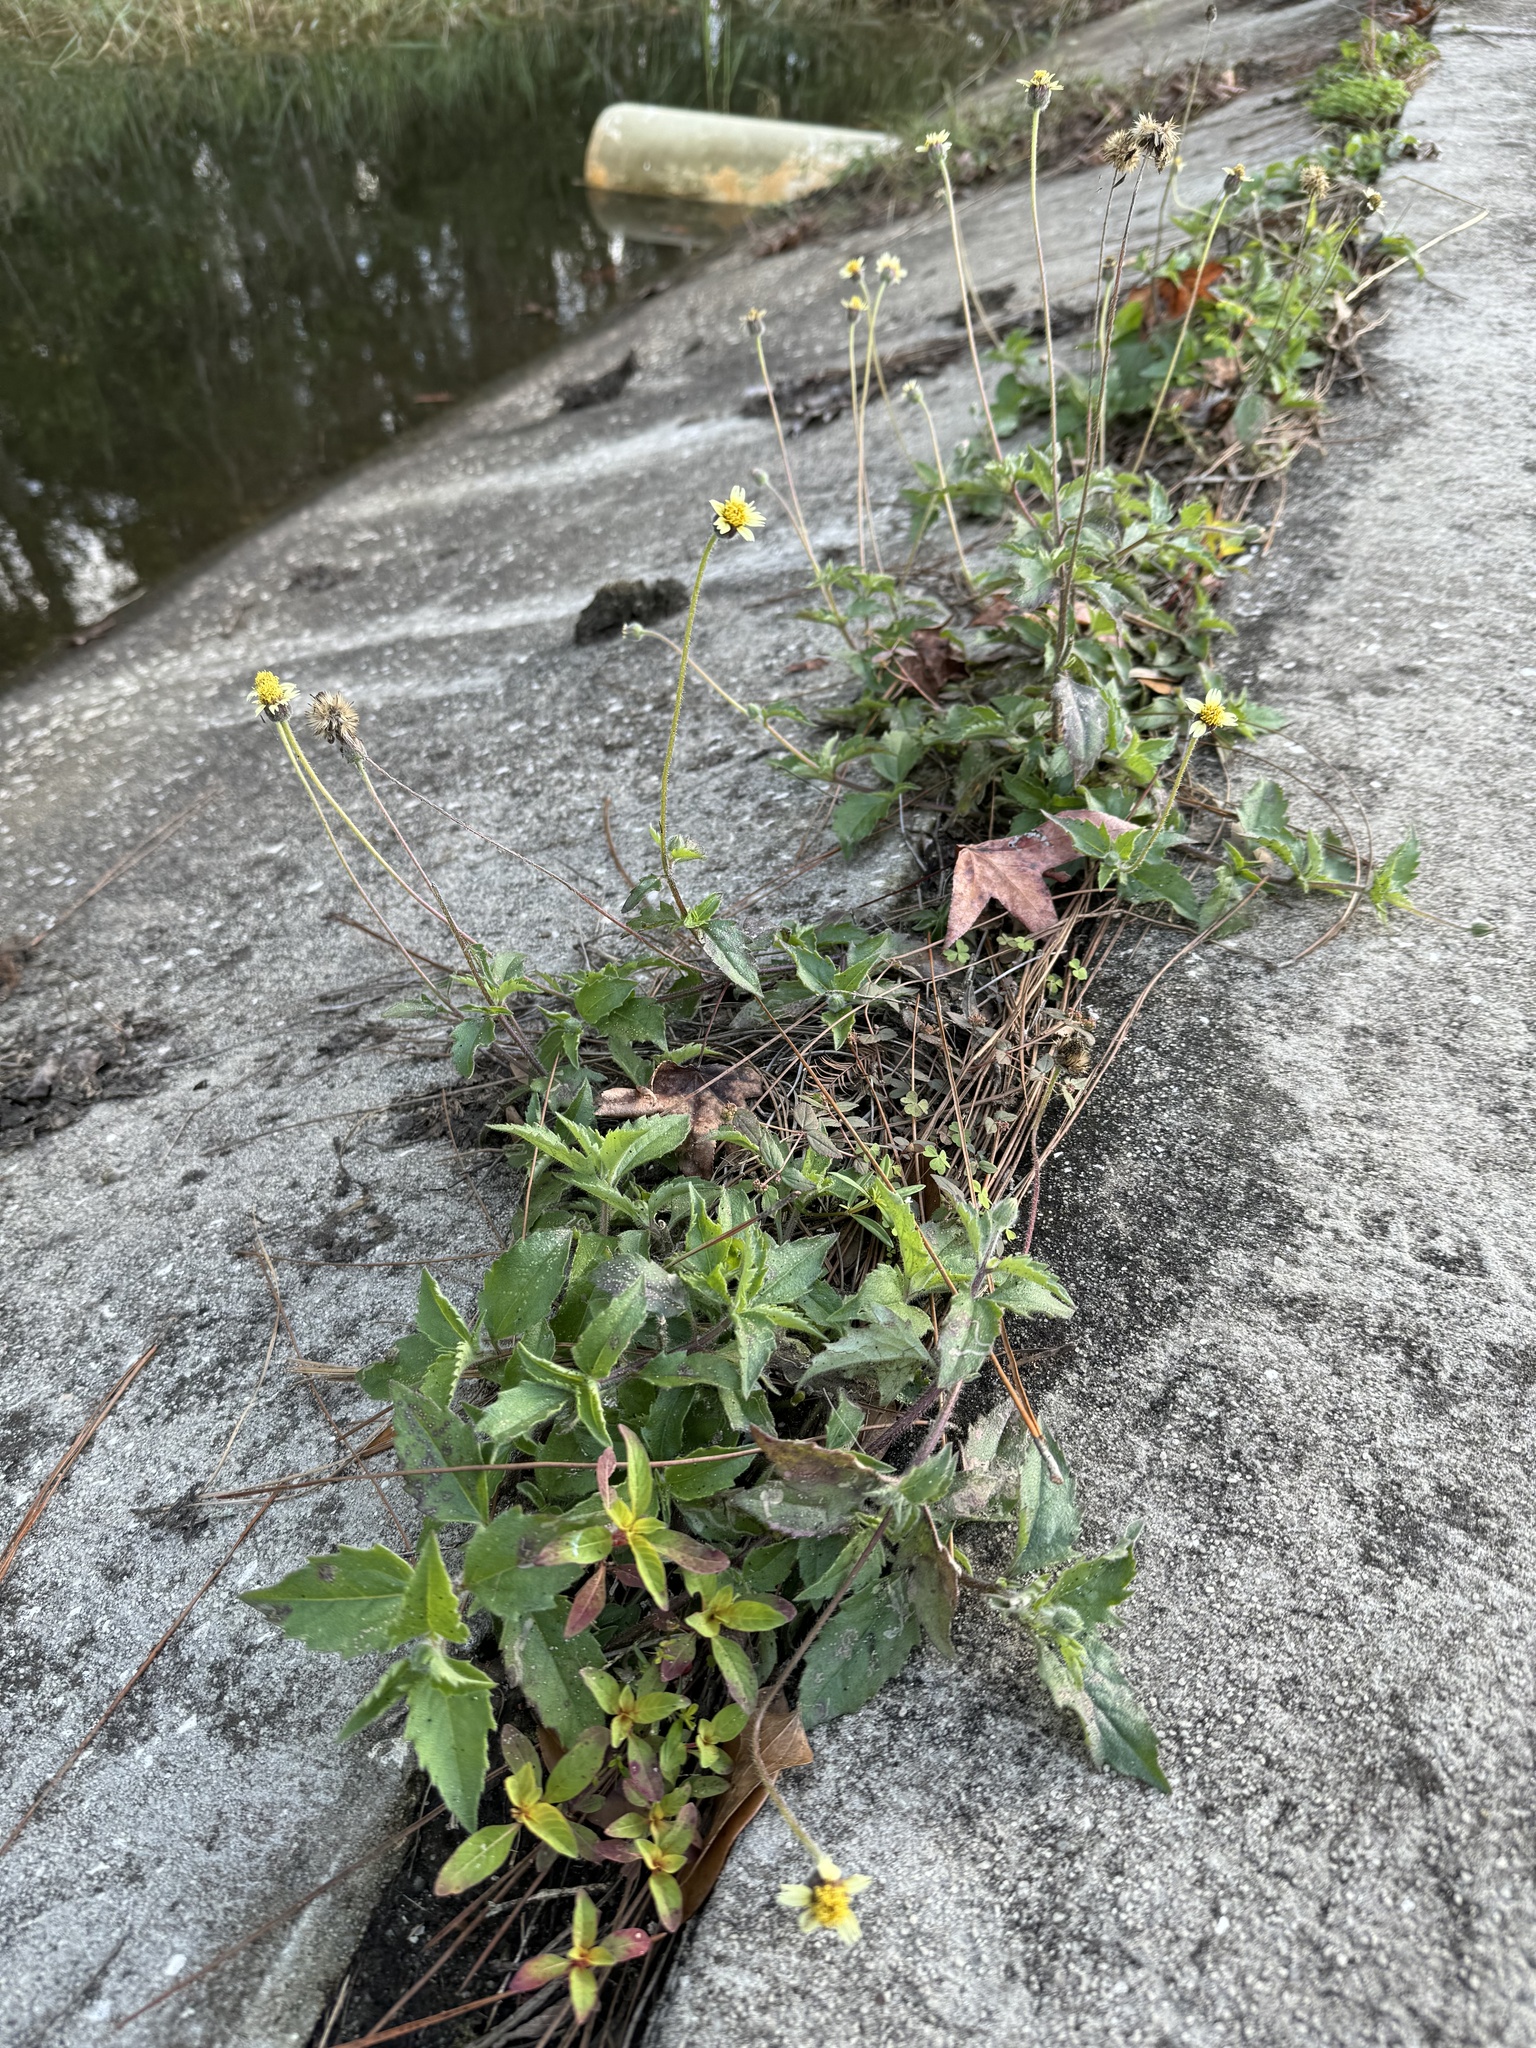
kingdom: Plantae
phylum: Tracheophyta
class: Magnoliopsida
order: Asterales
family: Asteraceae
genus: Tridax
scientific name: Tridax procumbens
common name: Coatbuttons
